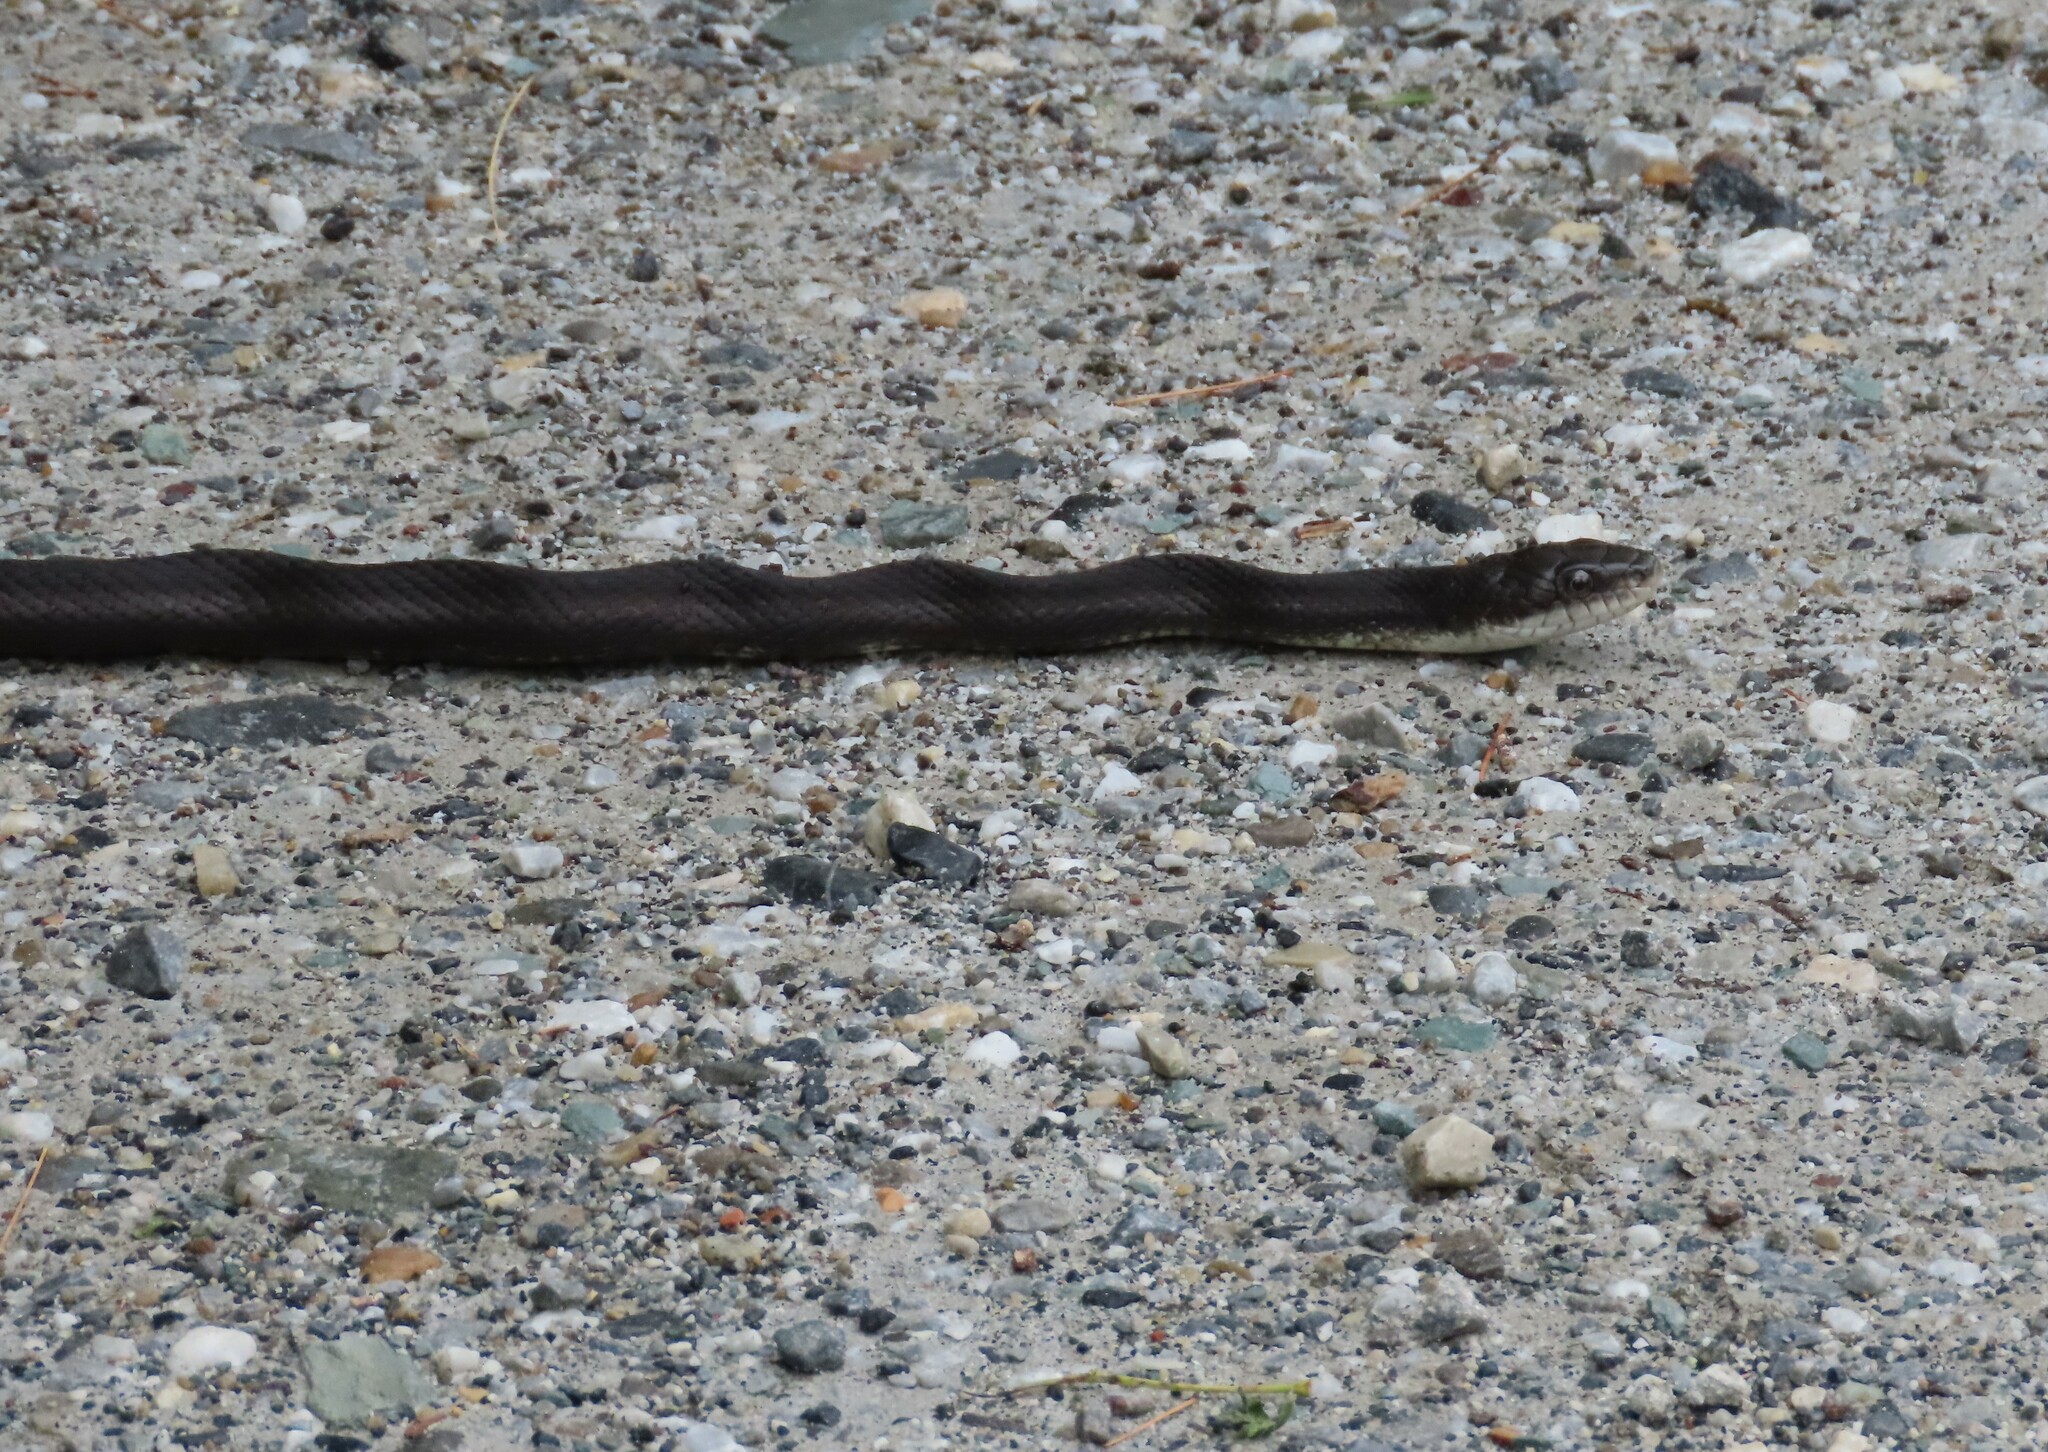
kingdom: Animalia
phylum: Chordata
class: Squamata
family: Colubridae
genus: Pantherophis
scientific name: Pantherophis alleghaniensis
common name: Eastern rat snake
